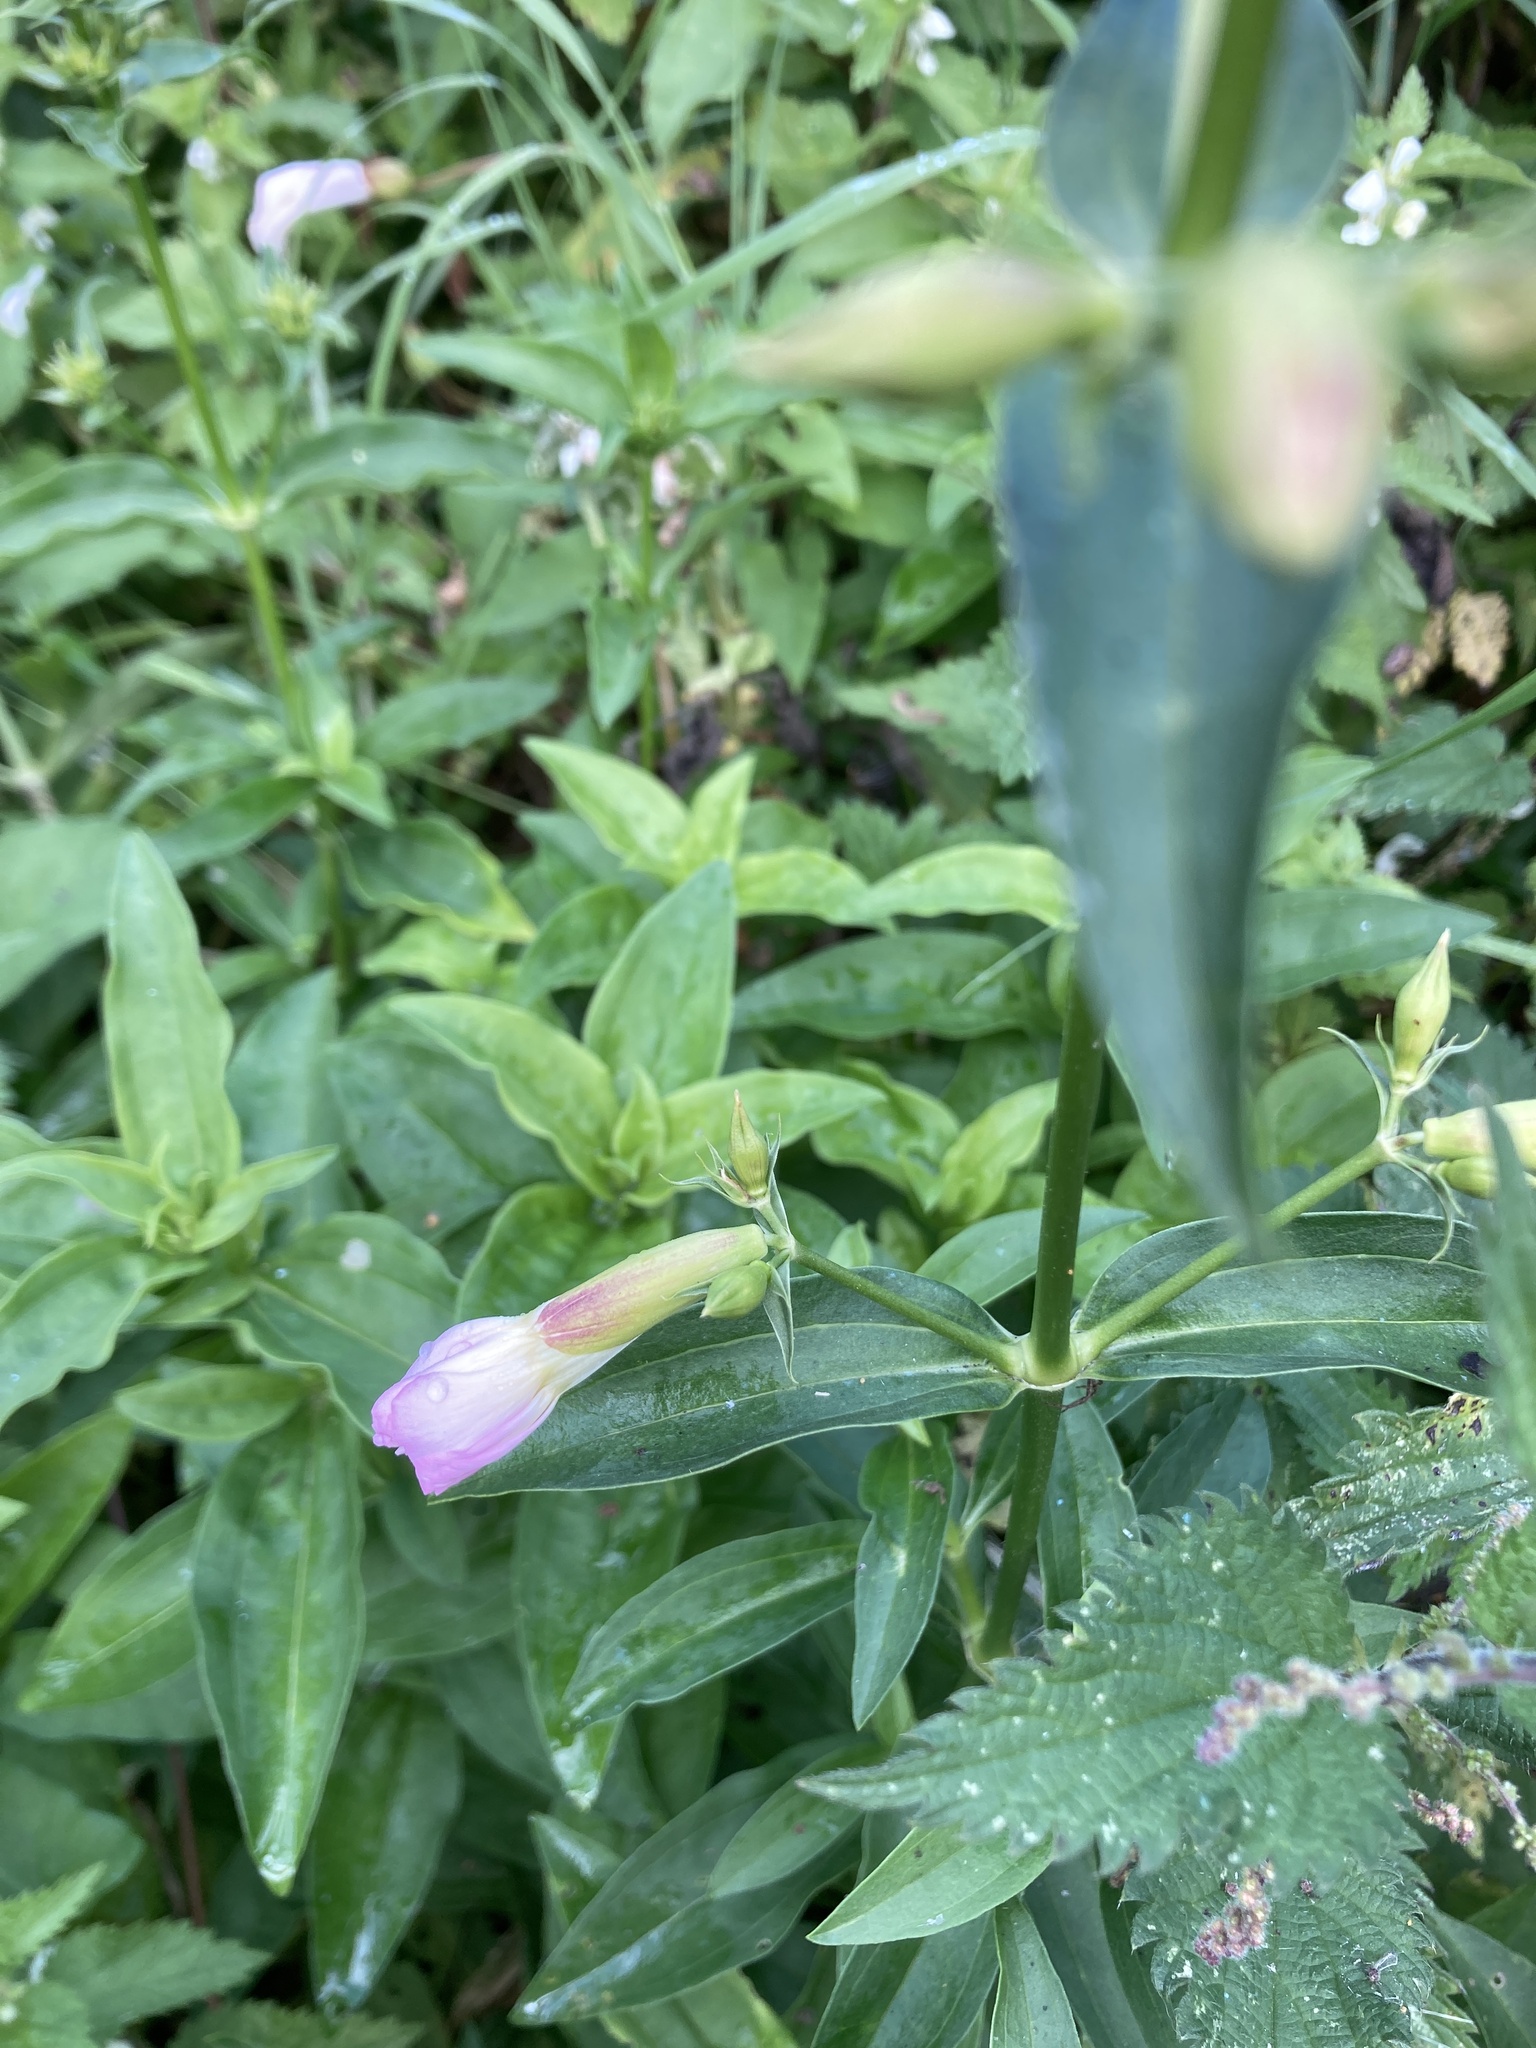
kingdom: Plantae
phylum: Tracheophyta
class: Magnoliopsida
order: Caryophyllales
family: Caryophyllaceae
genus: Saponaria
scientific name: Saponaria officinalis
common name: Soapwort
